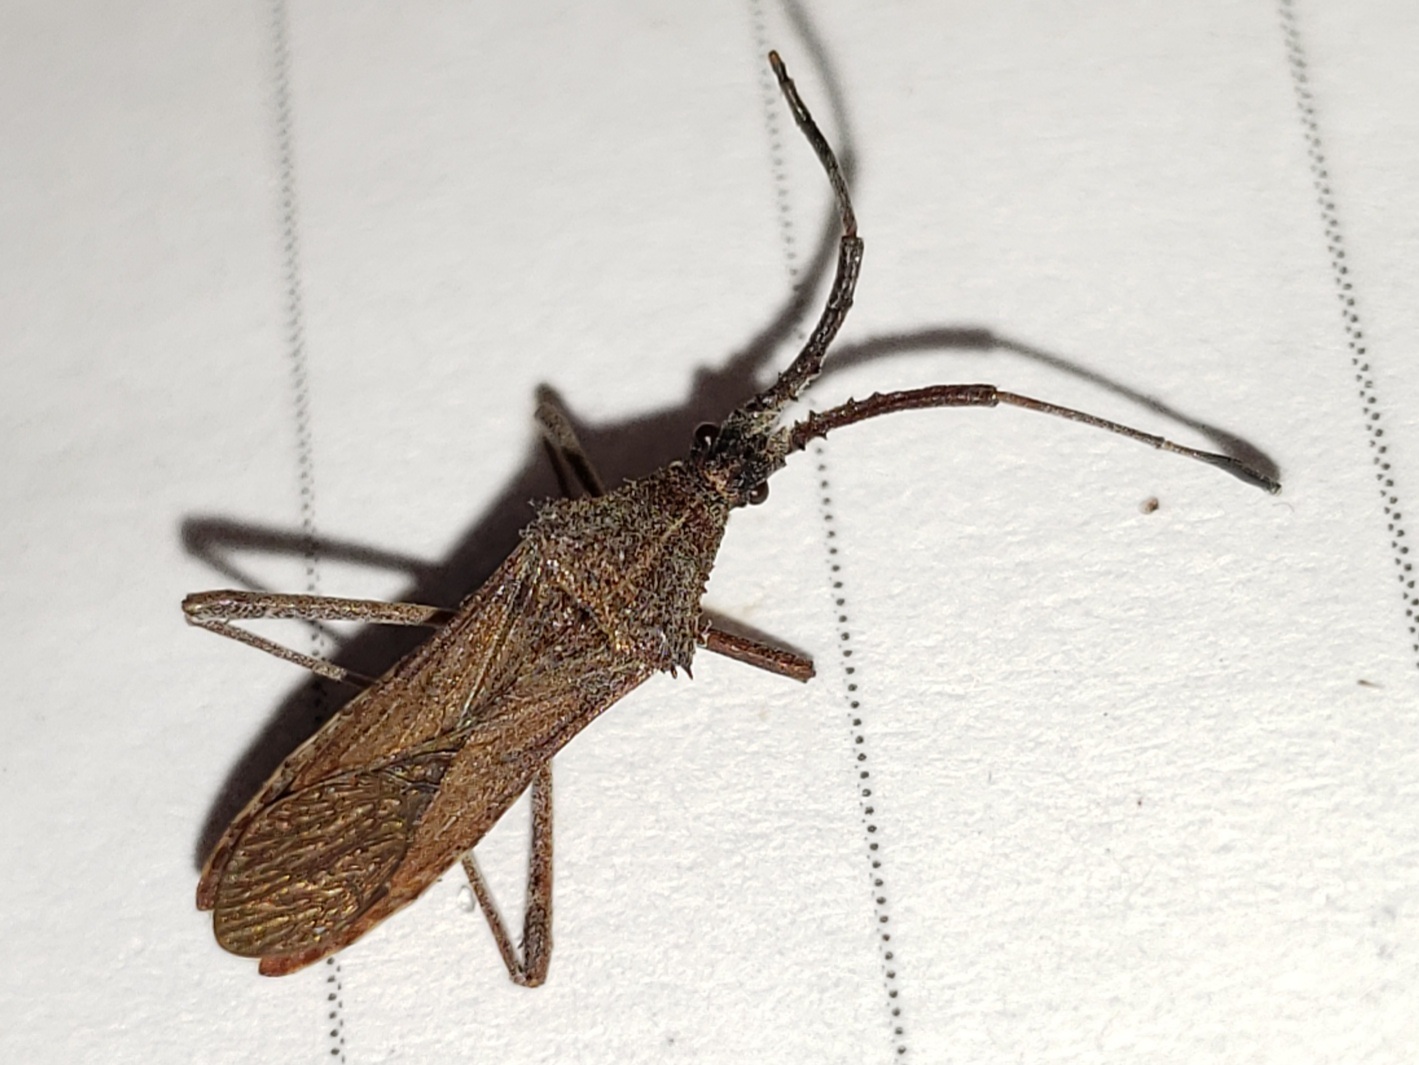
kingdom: Animalia
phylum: Arthropoda
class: Insecta
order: Hemiptera
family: Coreidae
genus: Chariesterus
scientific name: Chariesterus antennator
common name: Flat horned coreid
